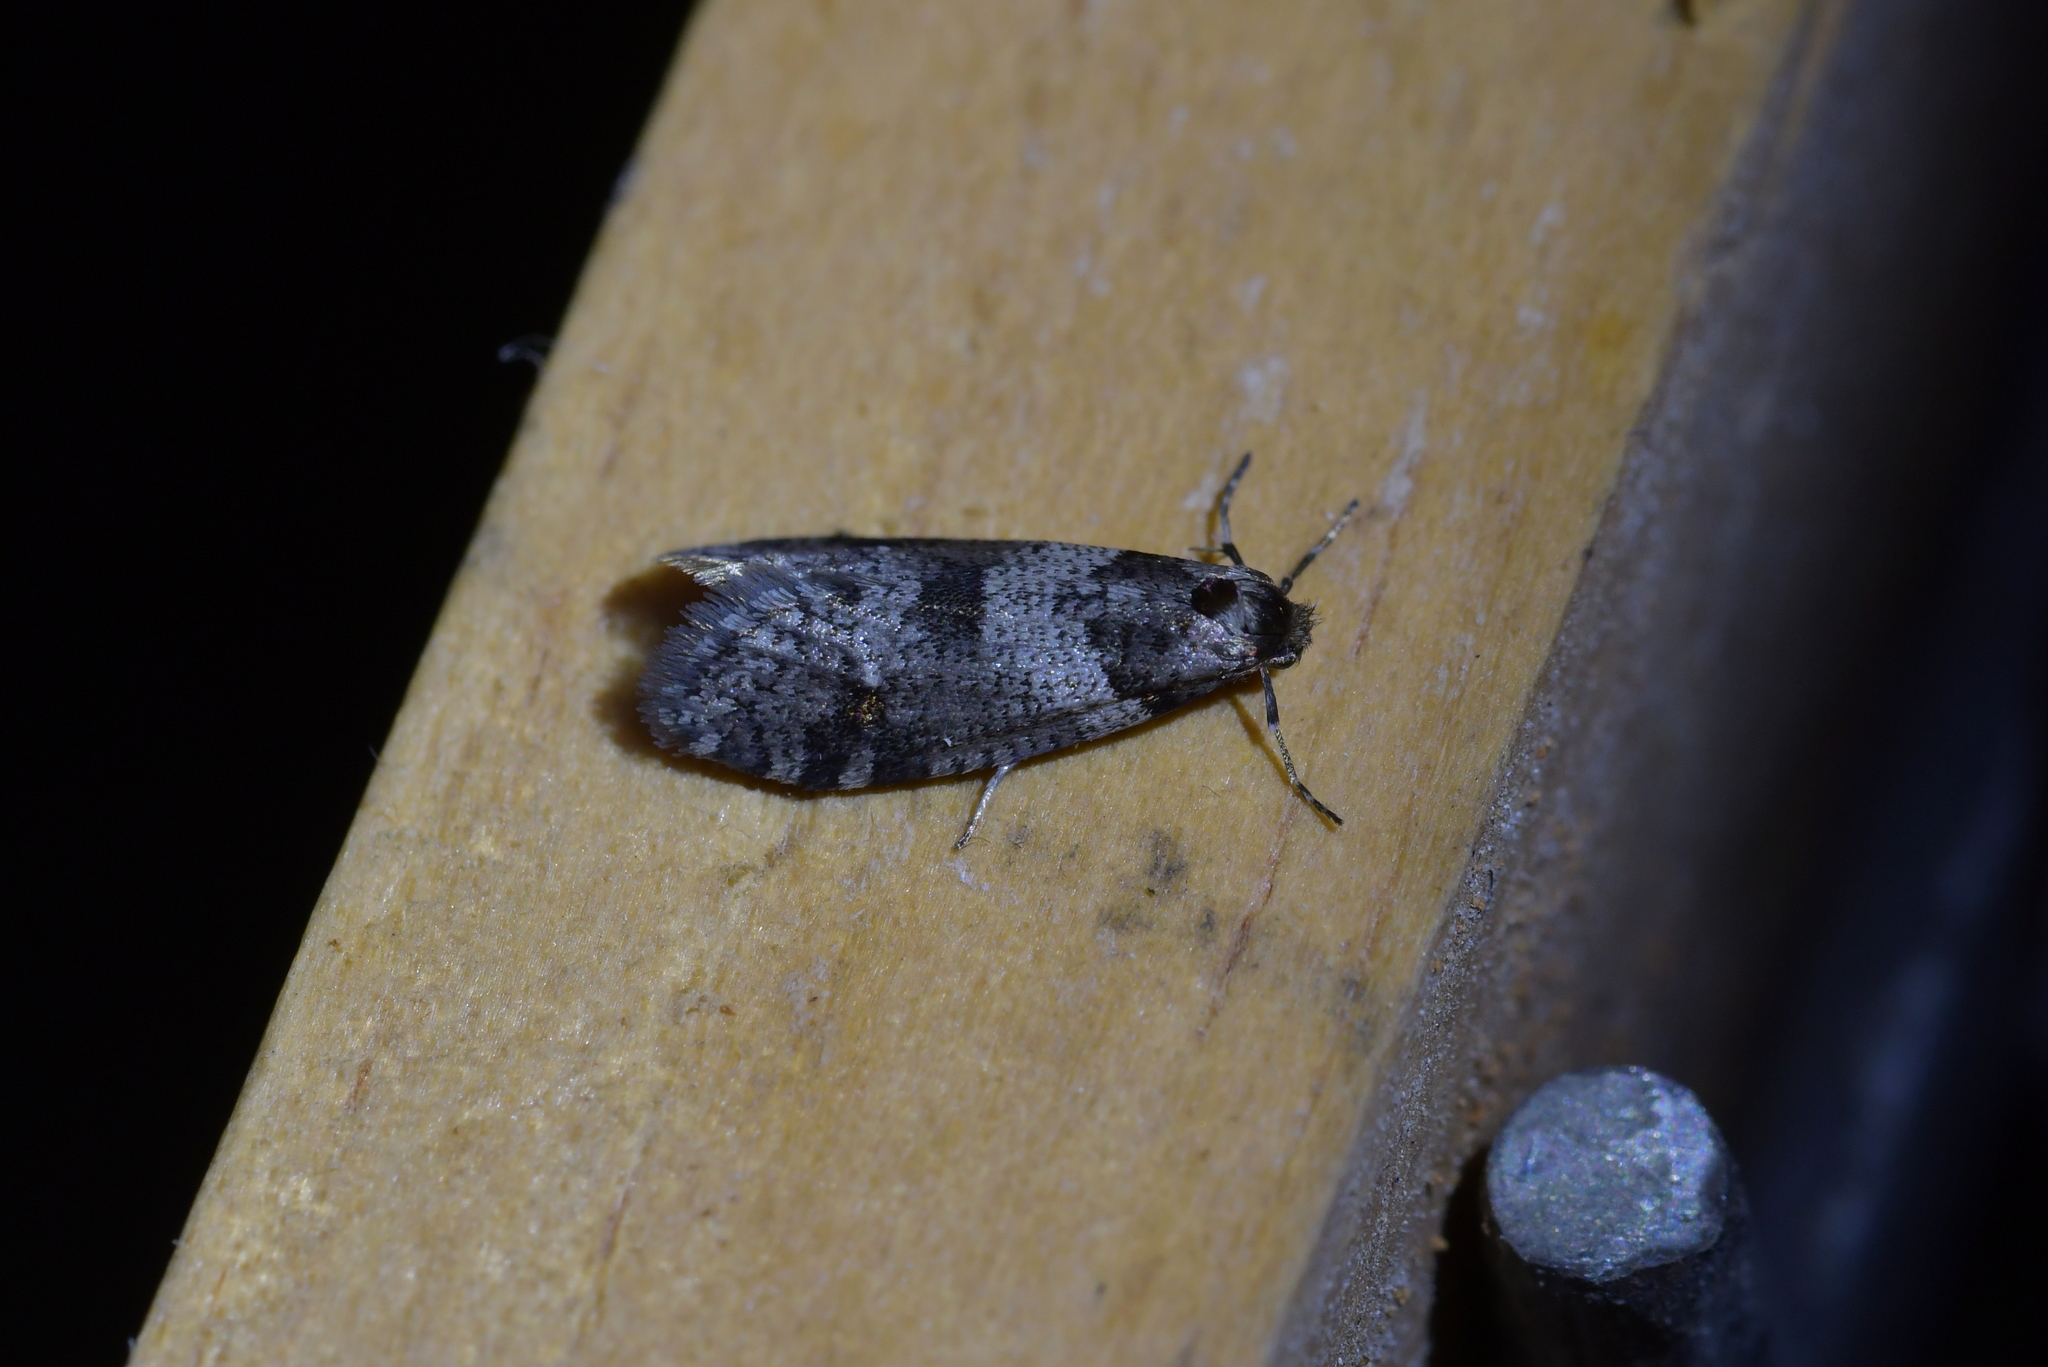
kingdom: Animalia
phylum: Arthropoda
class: Insecta
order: Lepidoptera
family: Psychidae
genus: Lepidoscia
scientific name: Lepidoscia heliochares
